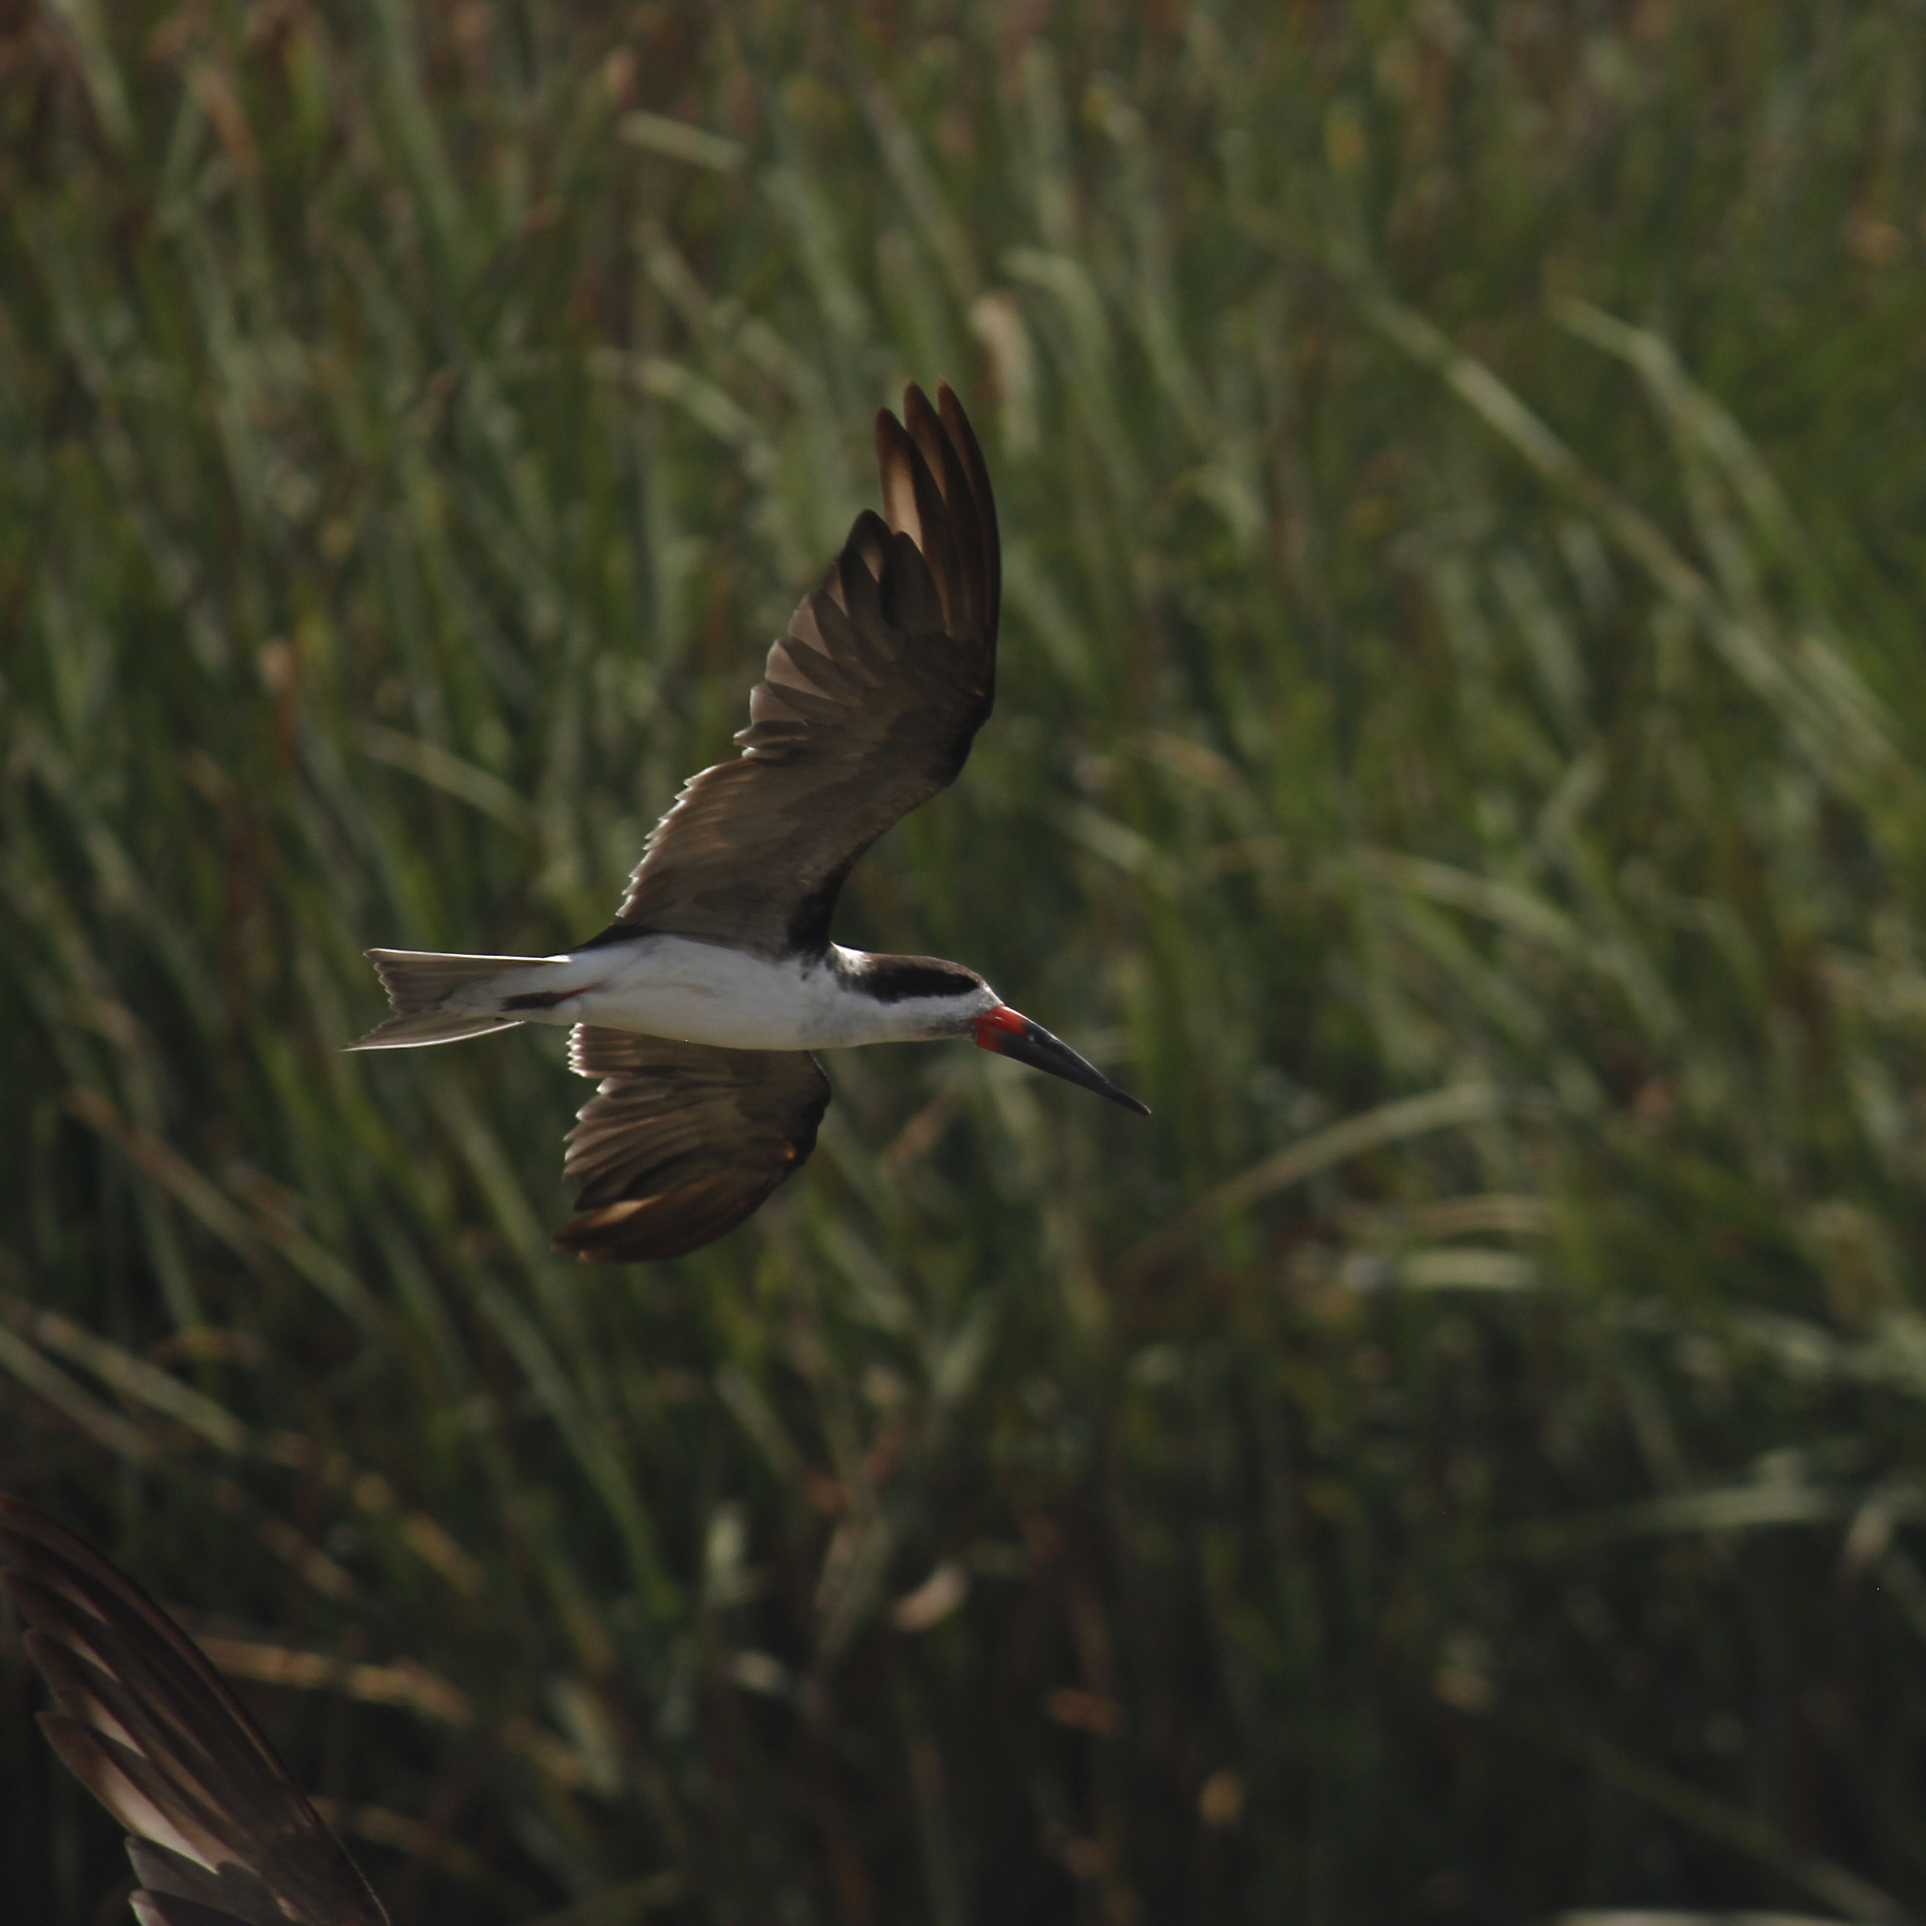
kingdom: Animalia
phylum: Chordata
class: Aves
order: Charadriiformes
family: Laridae
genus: Rynchops
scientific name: Rynchops niger
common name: Black skimmer
